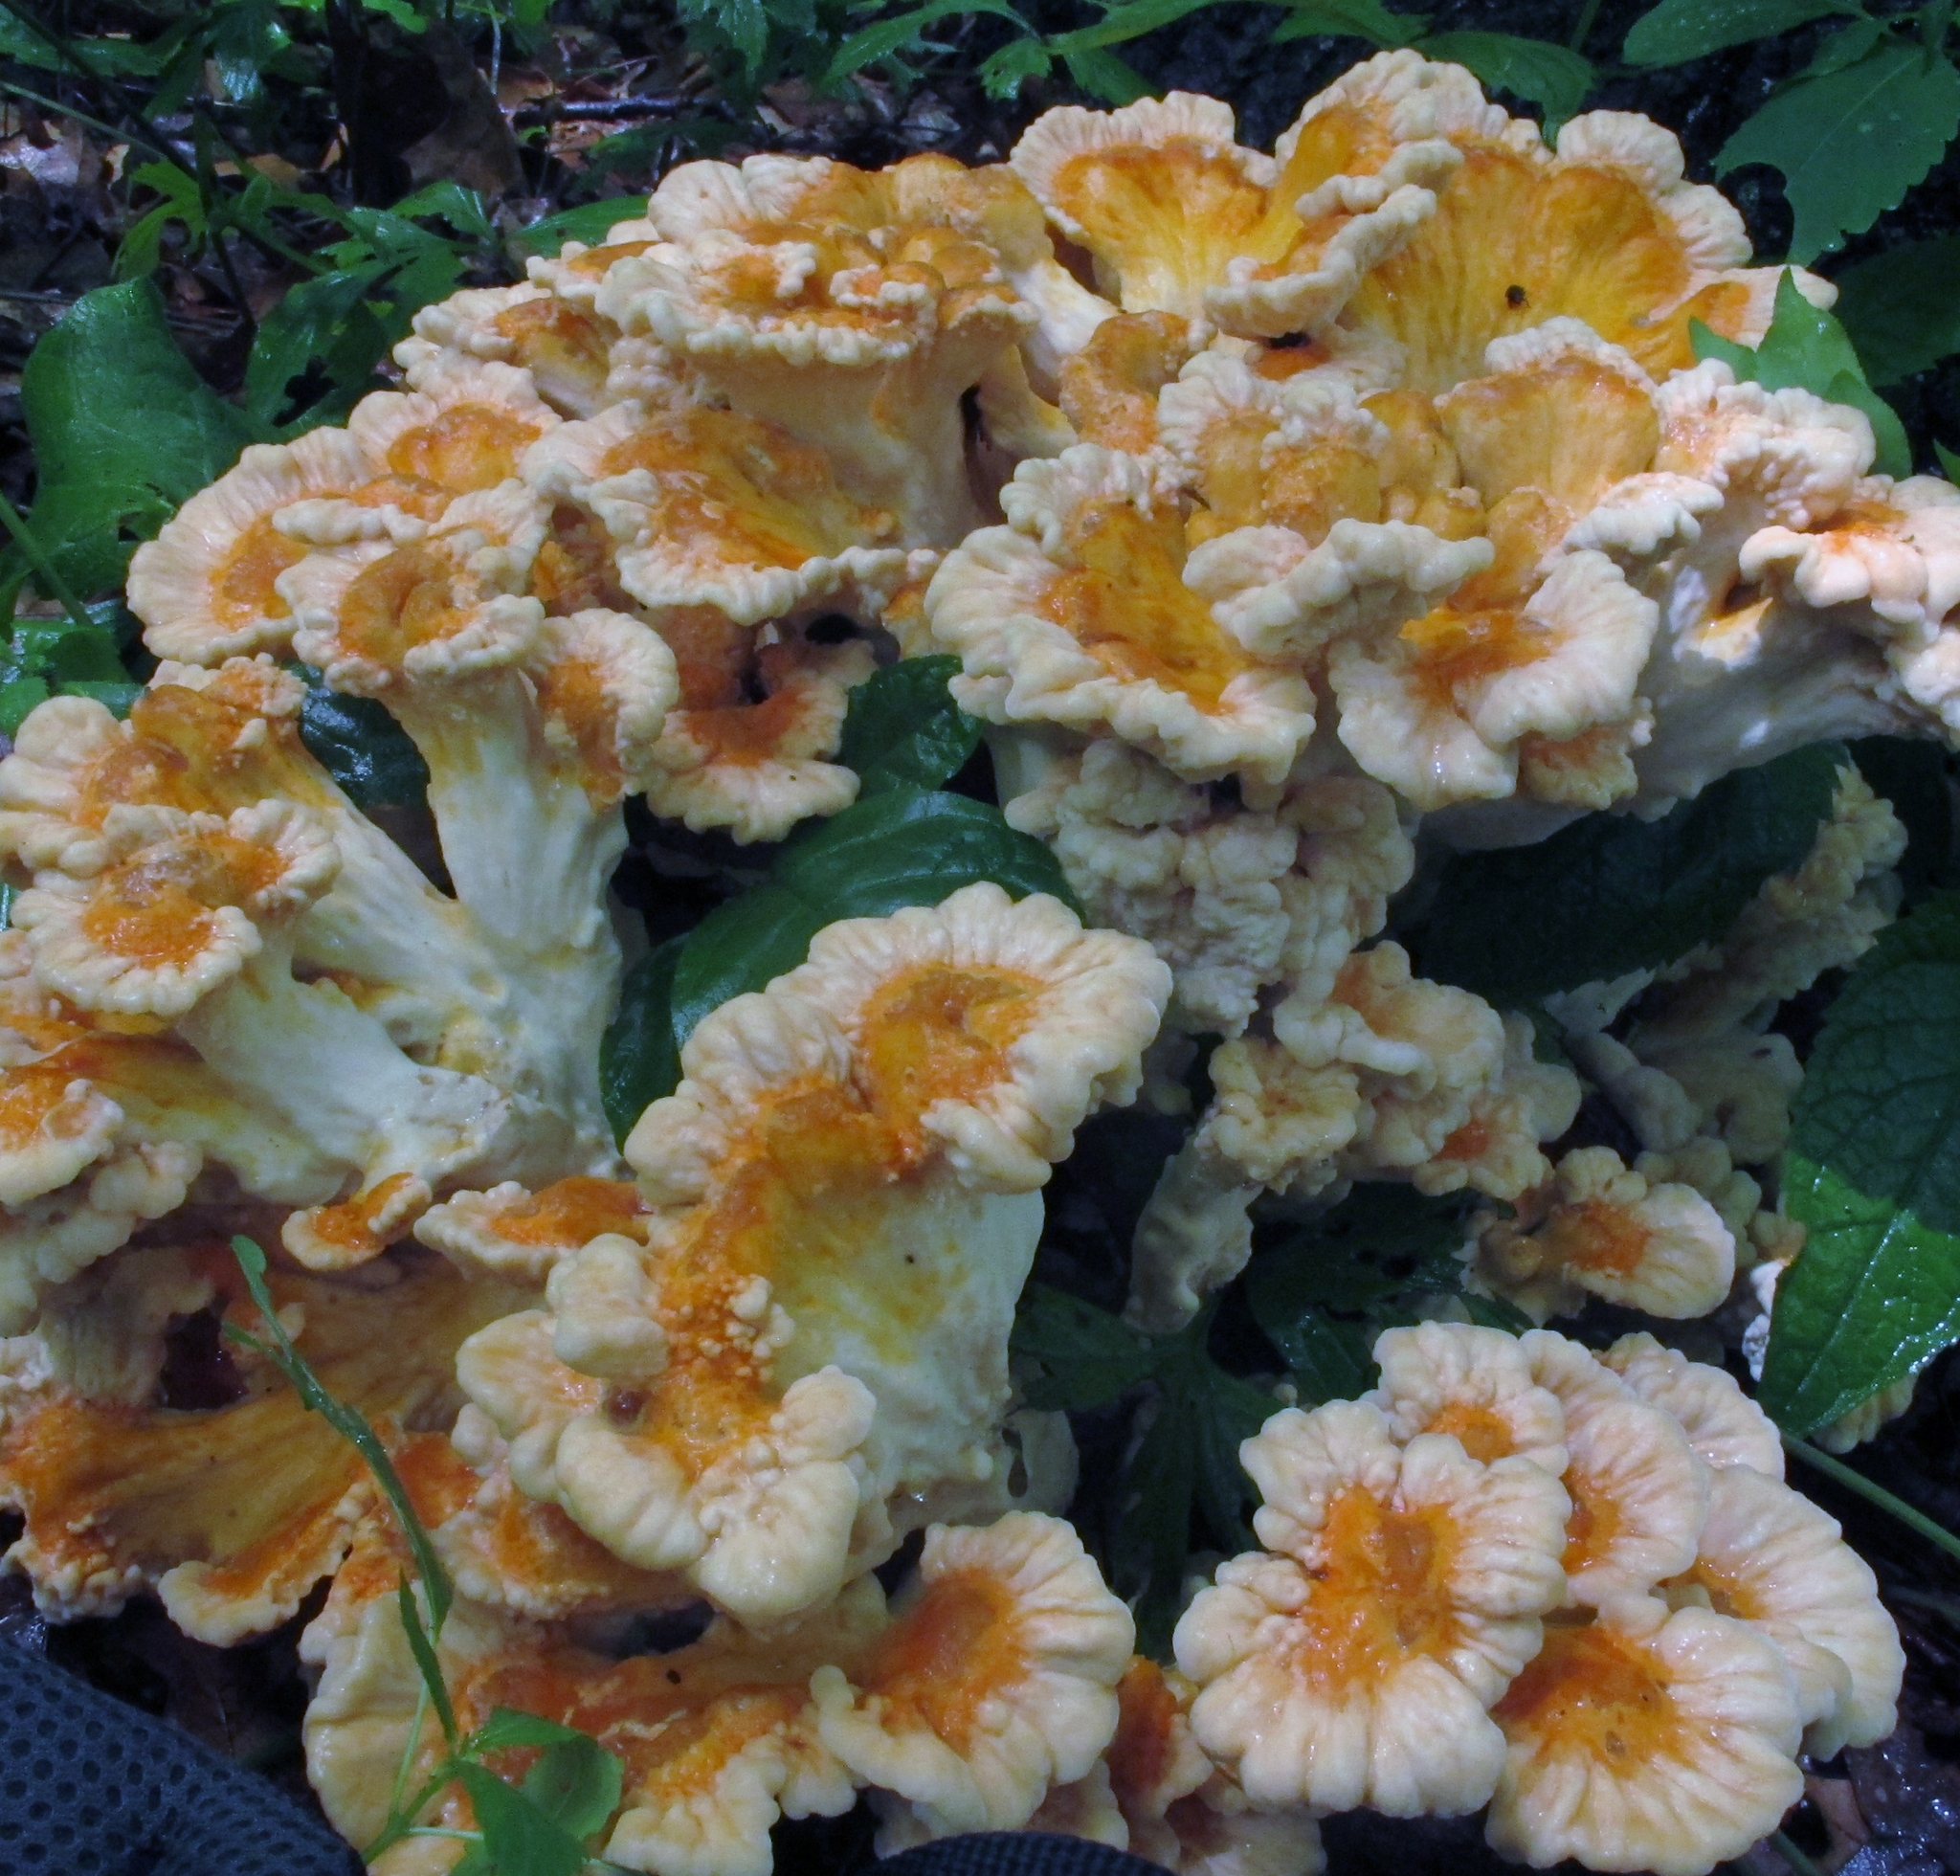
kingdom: Fungi
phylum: Basidiomycota
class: Agaricomycetes
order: Polyporales
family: Laetiporaceae
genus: Laetiporus
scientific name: Laetiporus sulphureus
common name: Chicken of the woods
